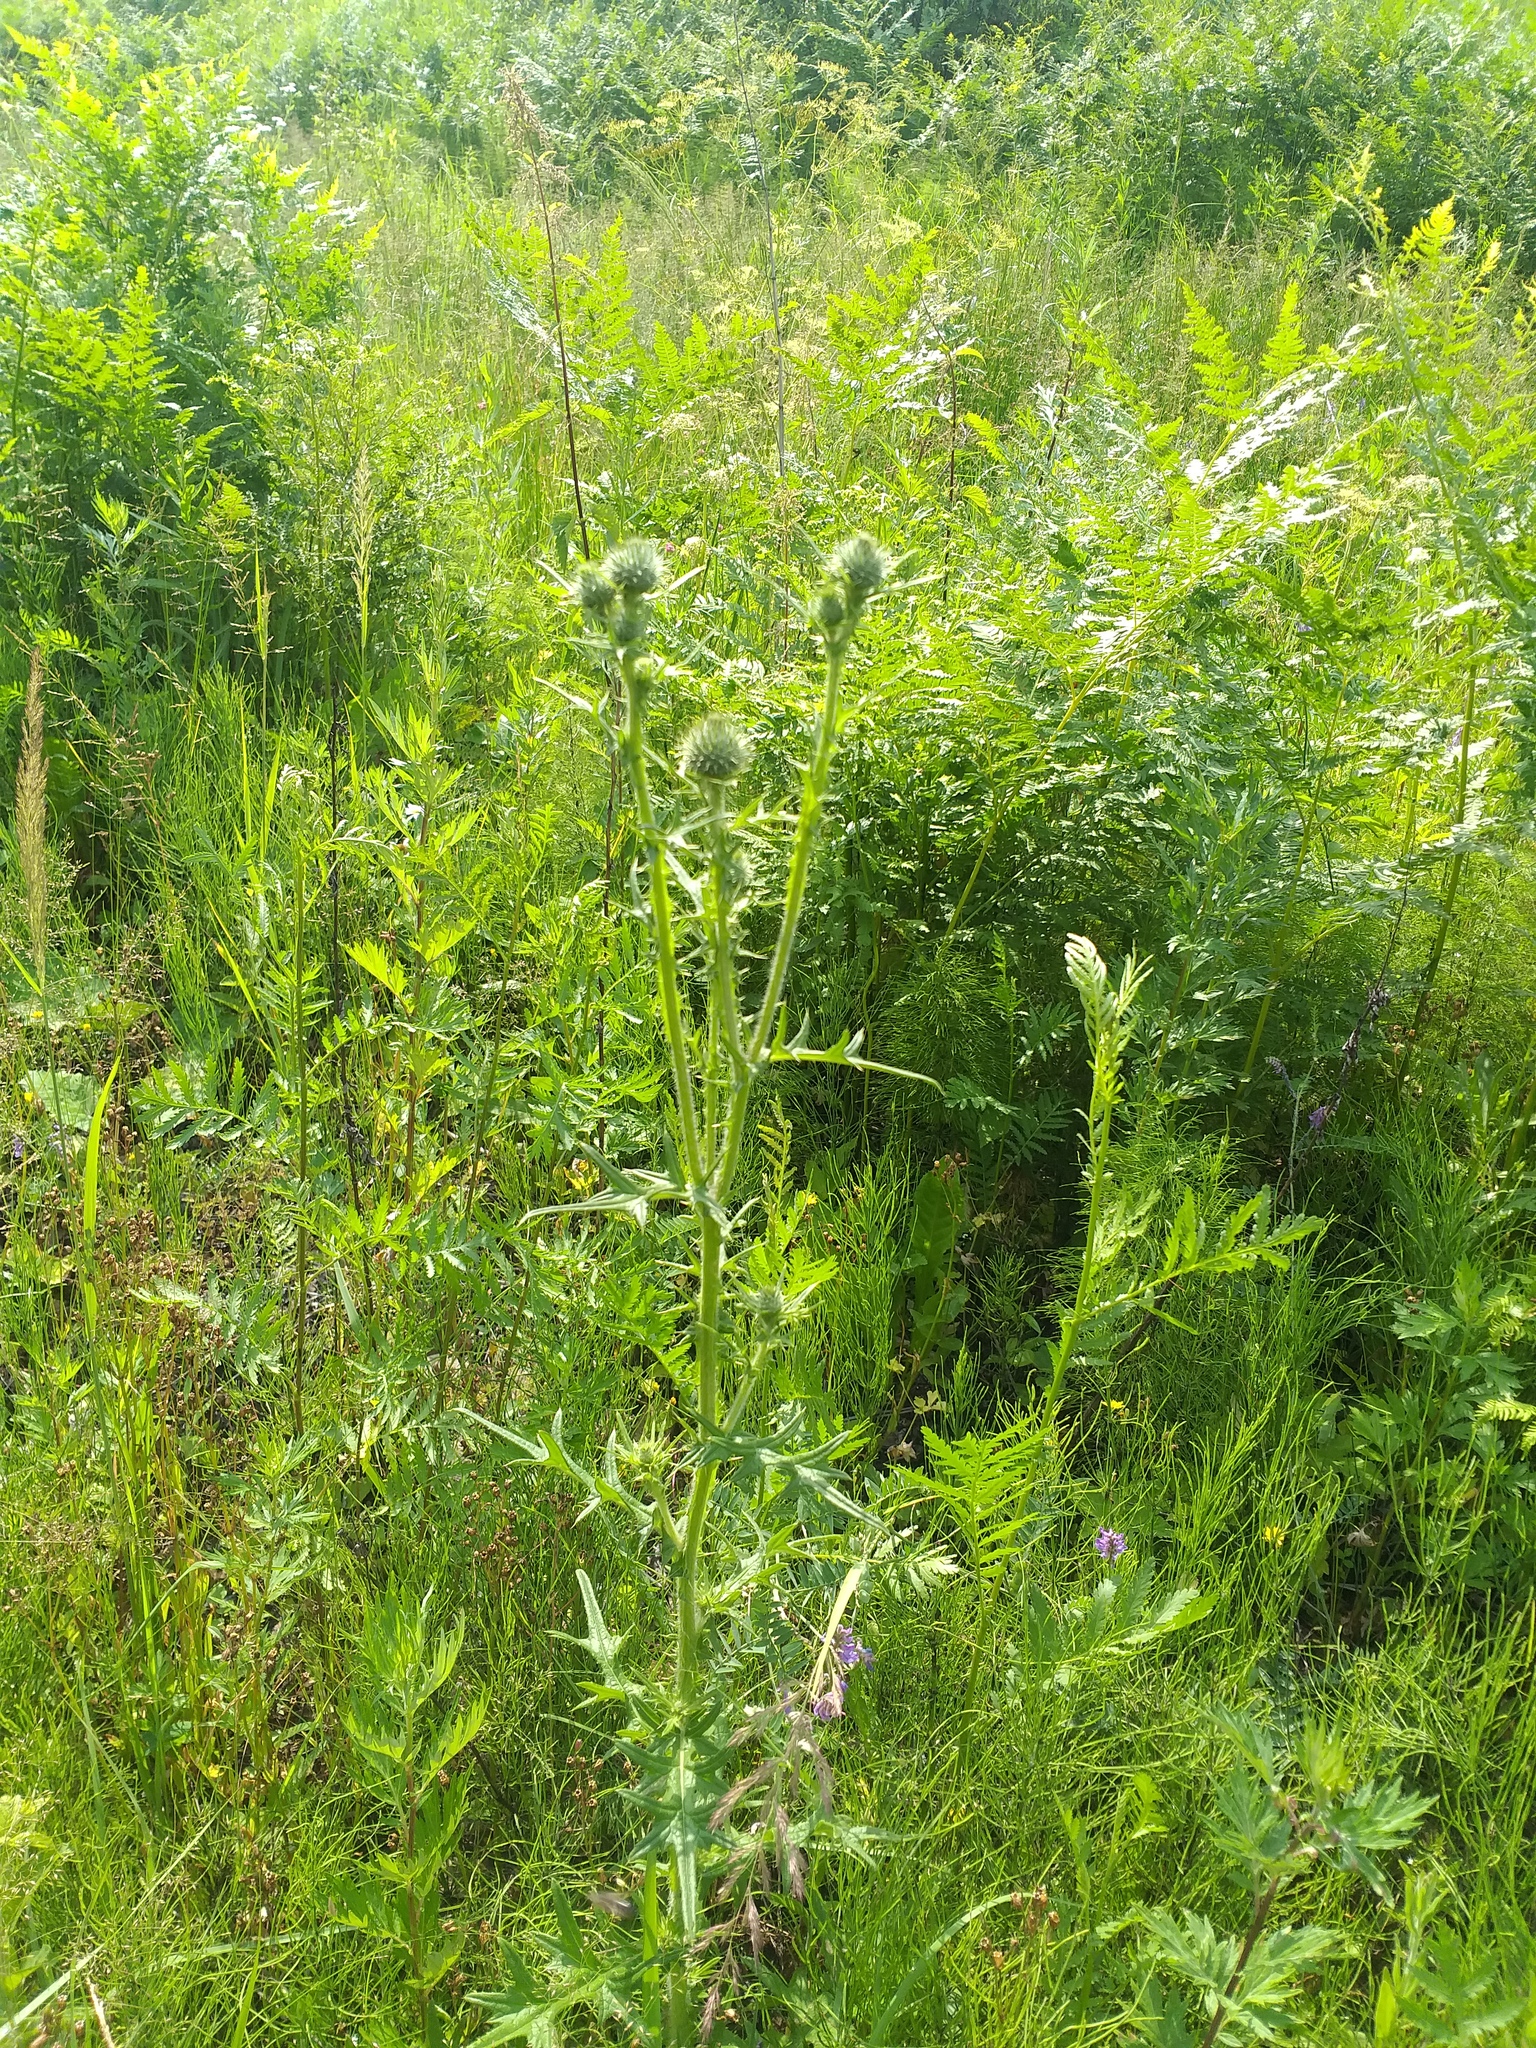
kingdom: Plantae
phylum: Tracheophyta
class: Magnoliopsida
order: Asterales
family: Asteraceae
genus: Cirsium
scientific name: Cirsium vulgare
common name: Bull thistle
